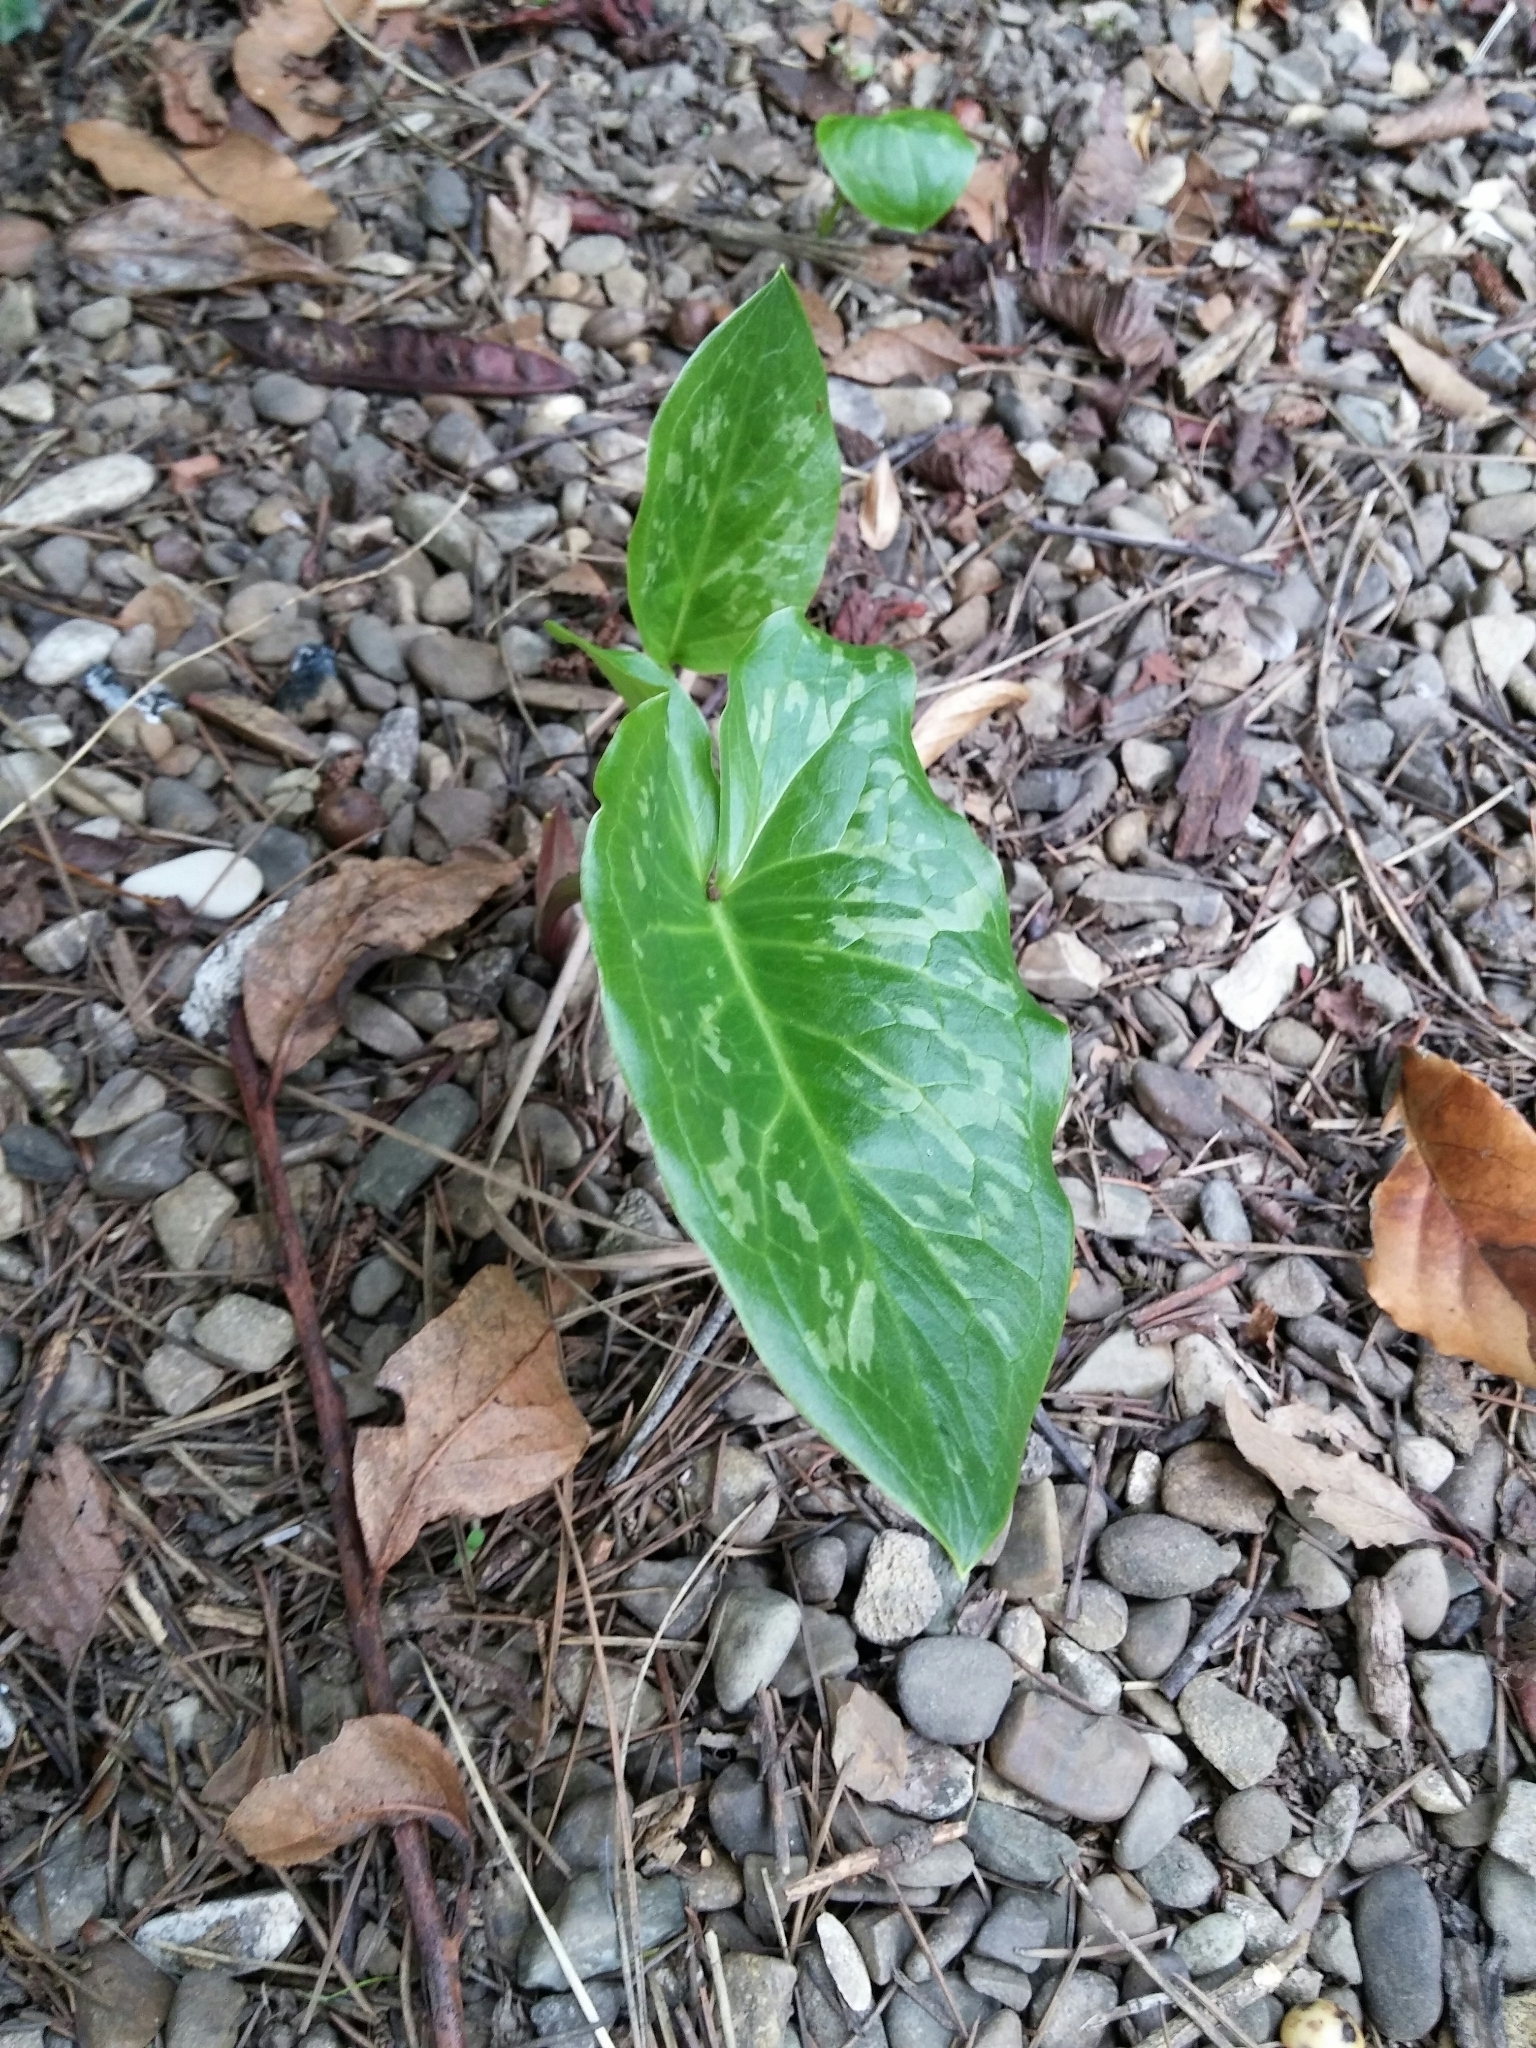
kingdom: Plantae
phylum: Tracheophyta
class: Liliopsida
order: Alismatales
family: Araceae
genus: Arum
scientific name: Arum italicum
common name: Italian lords-and-ladies
